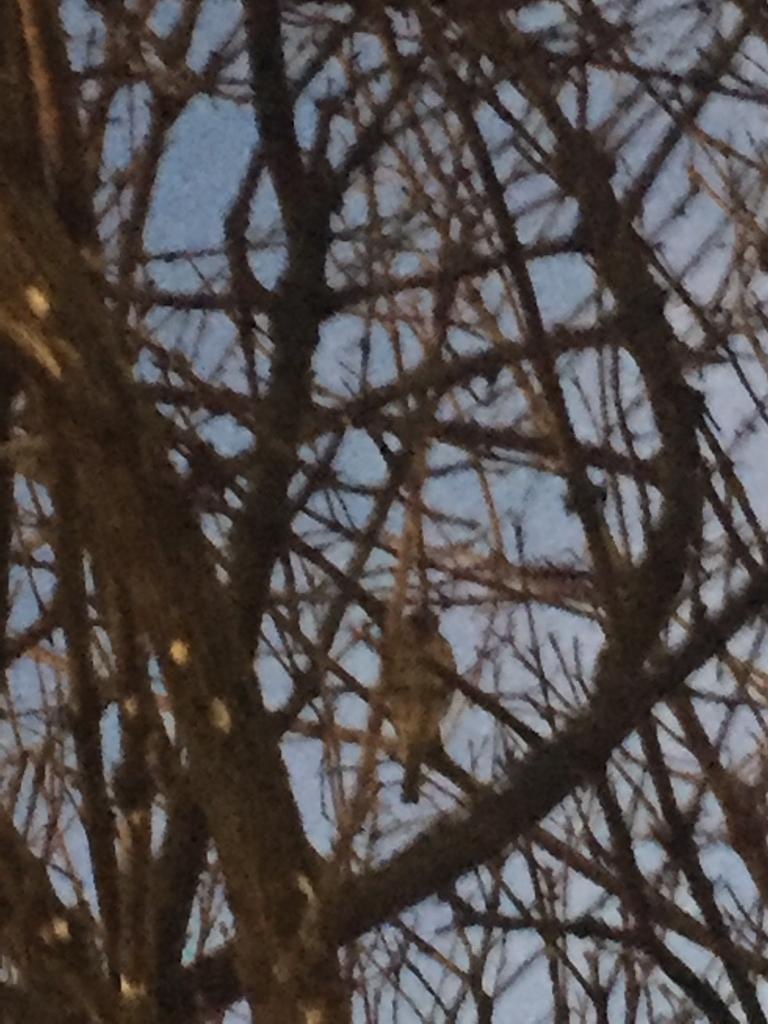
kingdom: Animalia
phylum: Chordata
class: Aves
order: Passeriformes
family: Passeridae
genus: Passer
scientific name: Passer domesticus
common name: House sparrow
